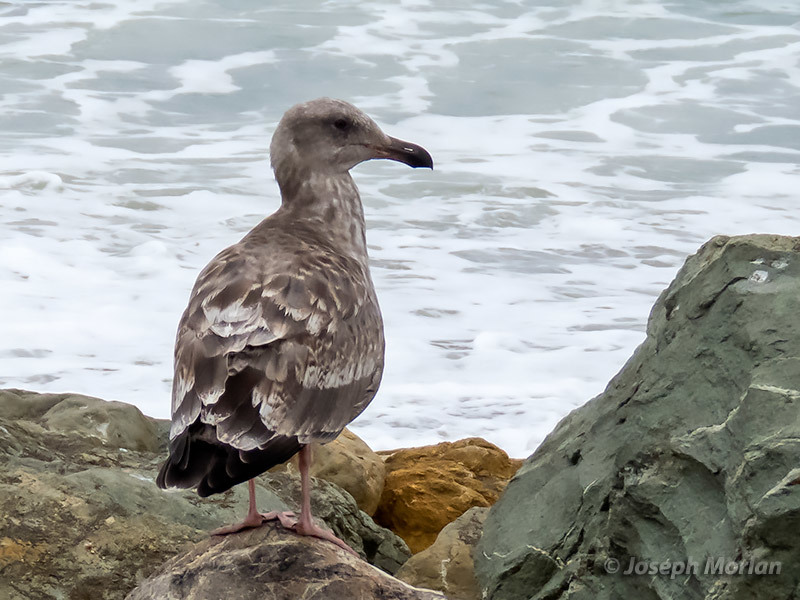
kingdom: Animalia
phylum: Chordata
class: Aves
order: Charadriiformes
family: Laridae
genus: Larus
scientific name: Larus occidentalis
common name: Western gull
